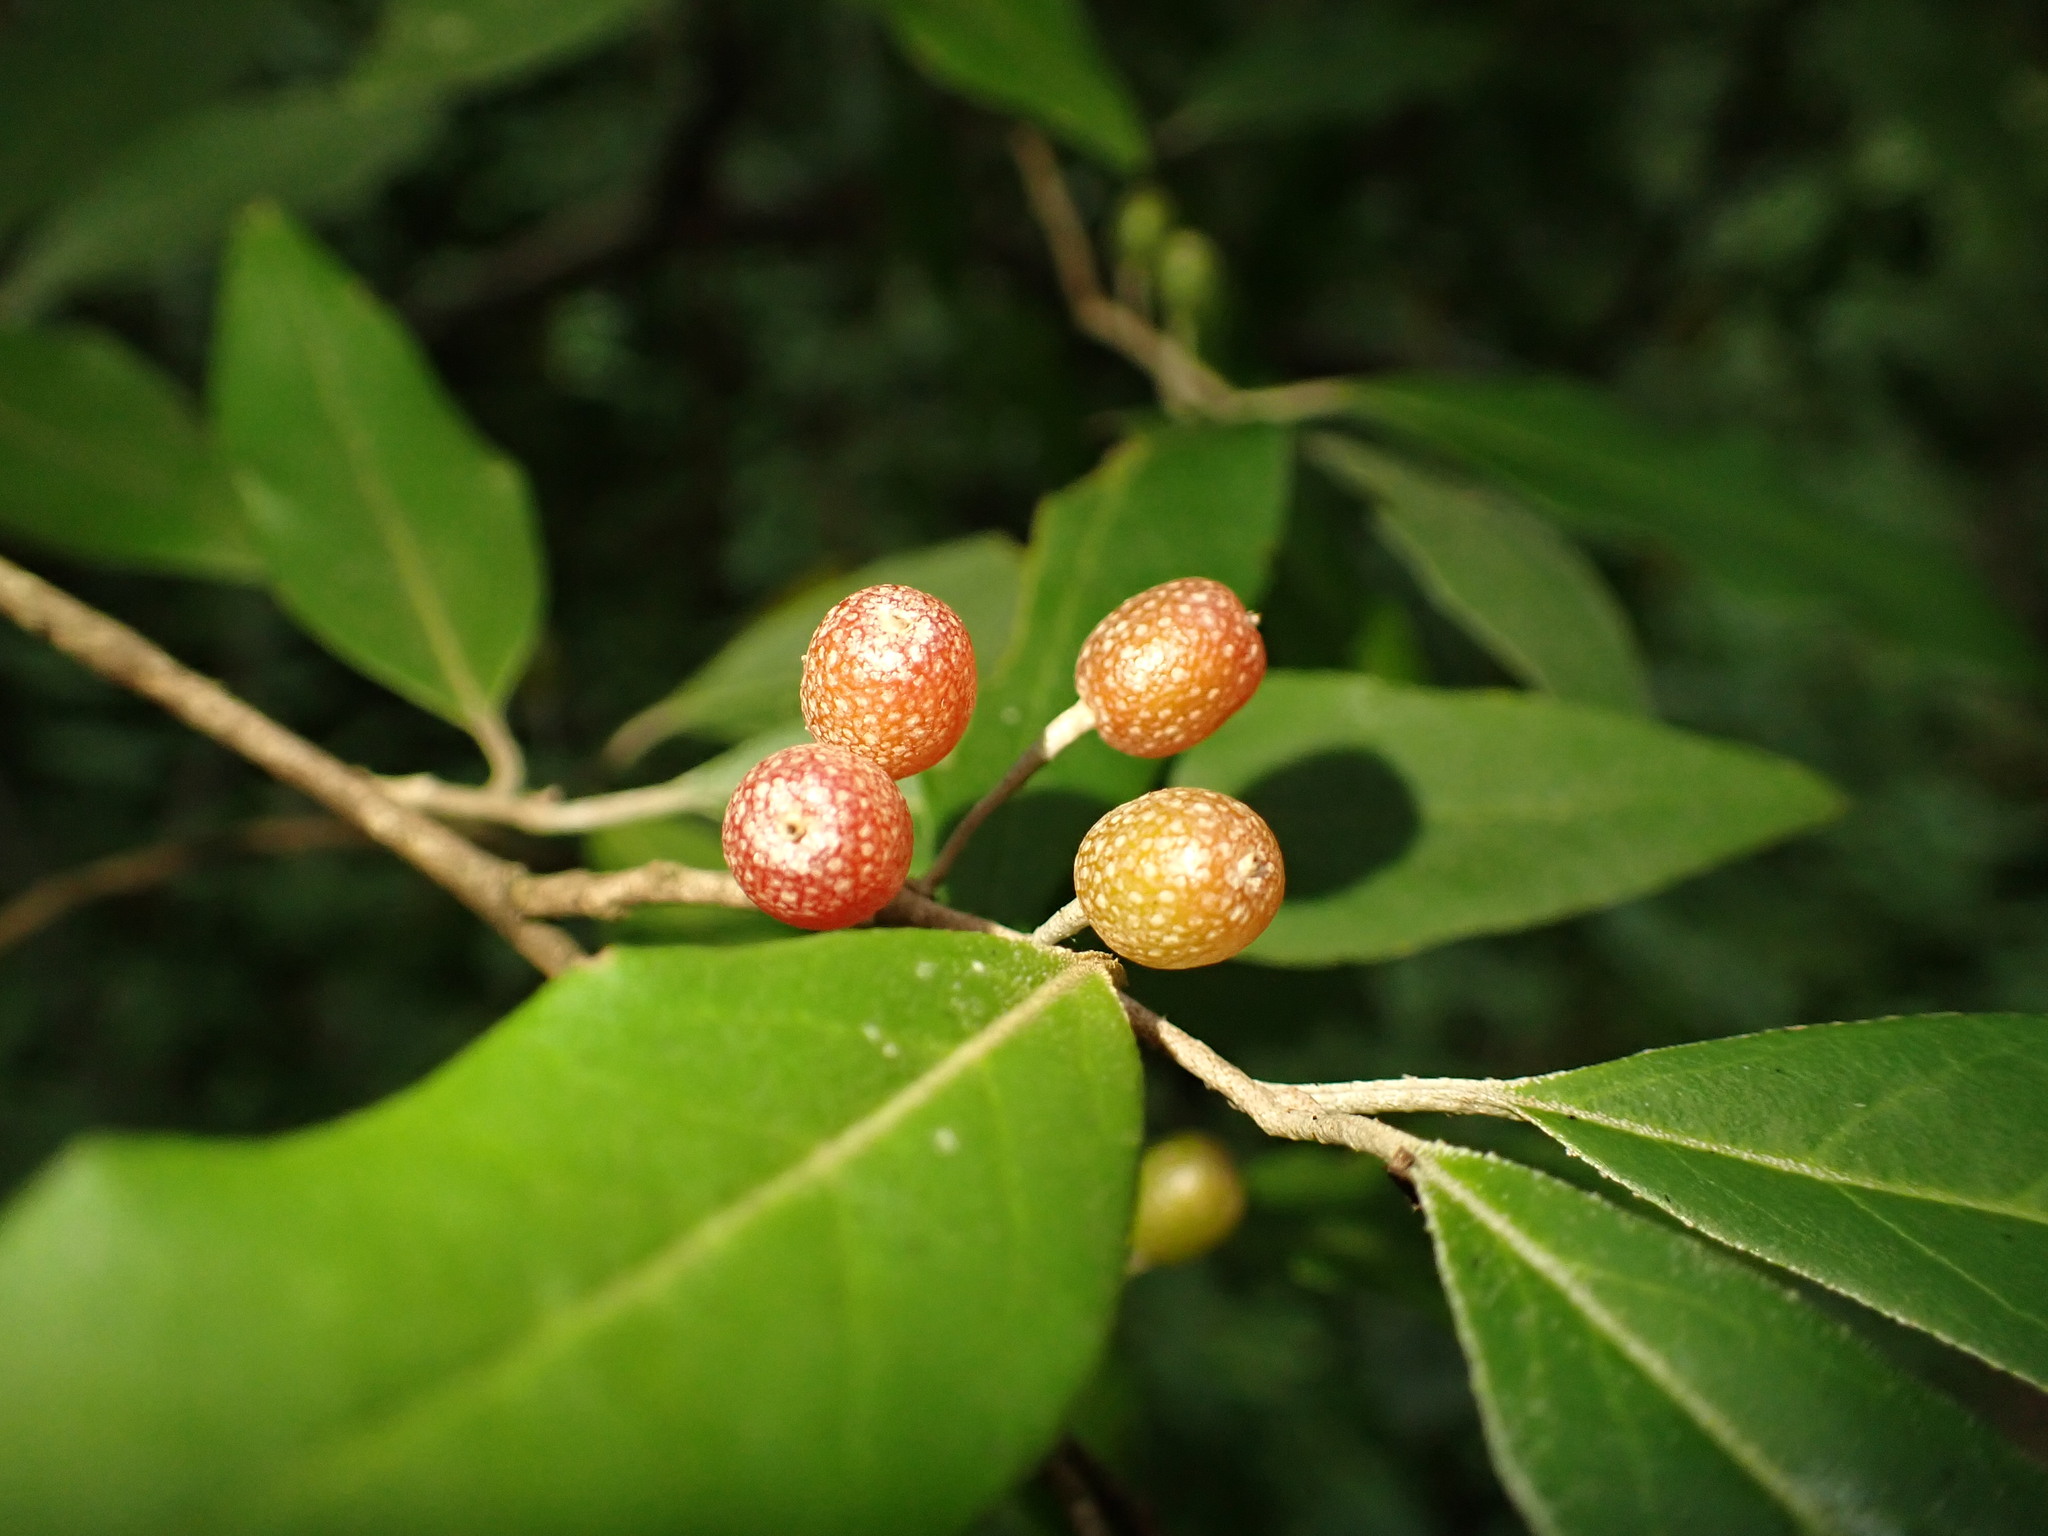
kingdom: Plantae
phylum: Tracheophyta
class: Magnoliopsida
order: Rosales
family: Elaeagnaceae
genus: Elaeagnus
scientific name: Elaeagnus umbellata
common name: Autumn olive
